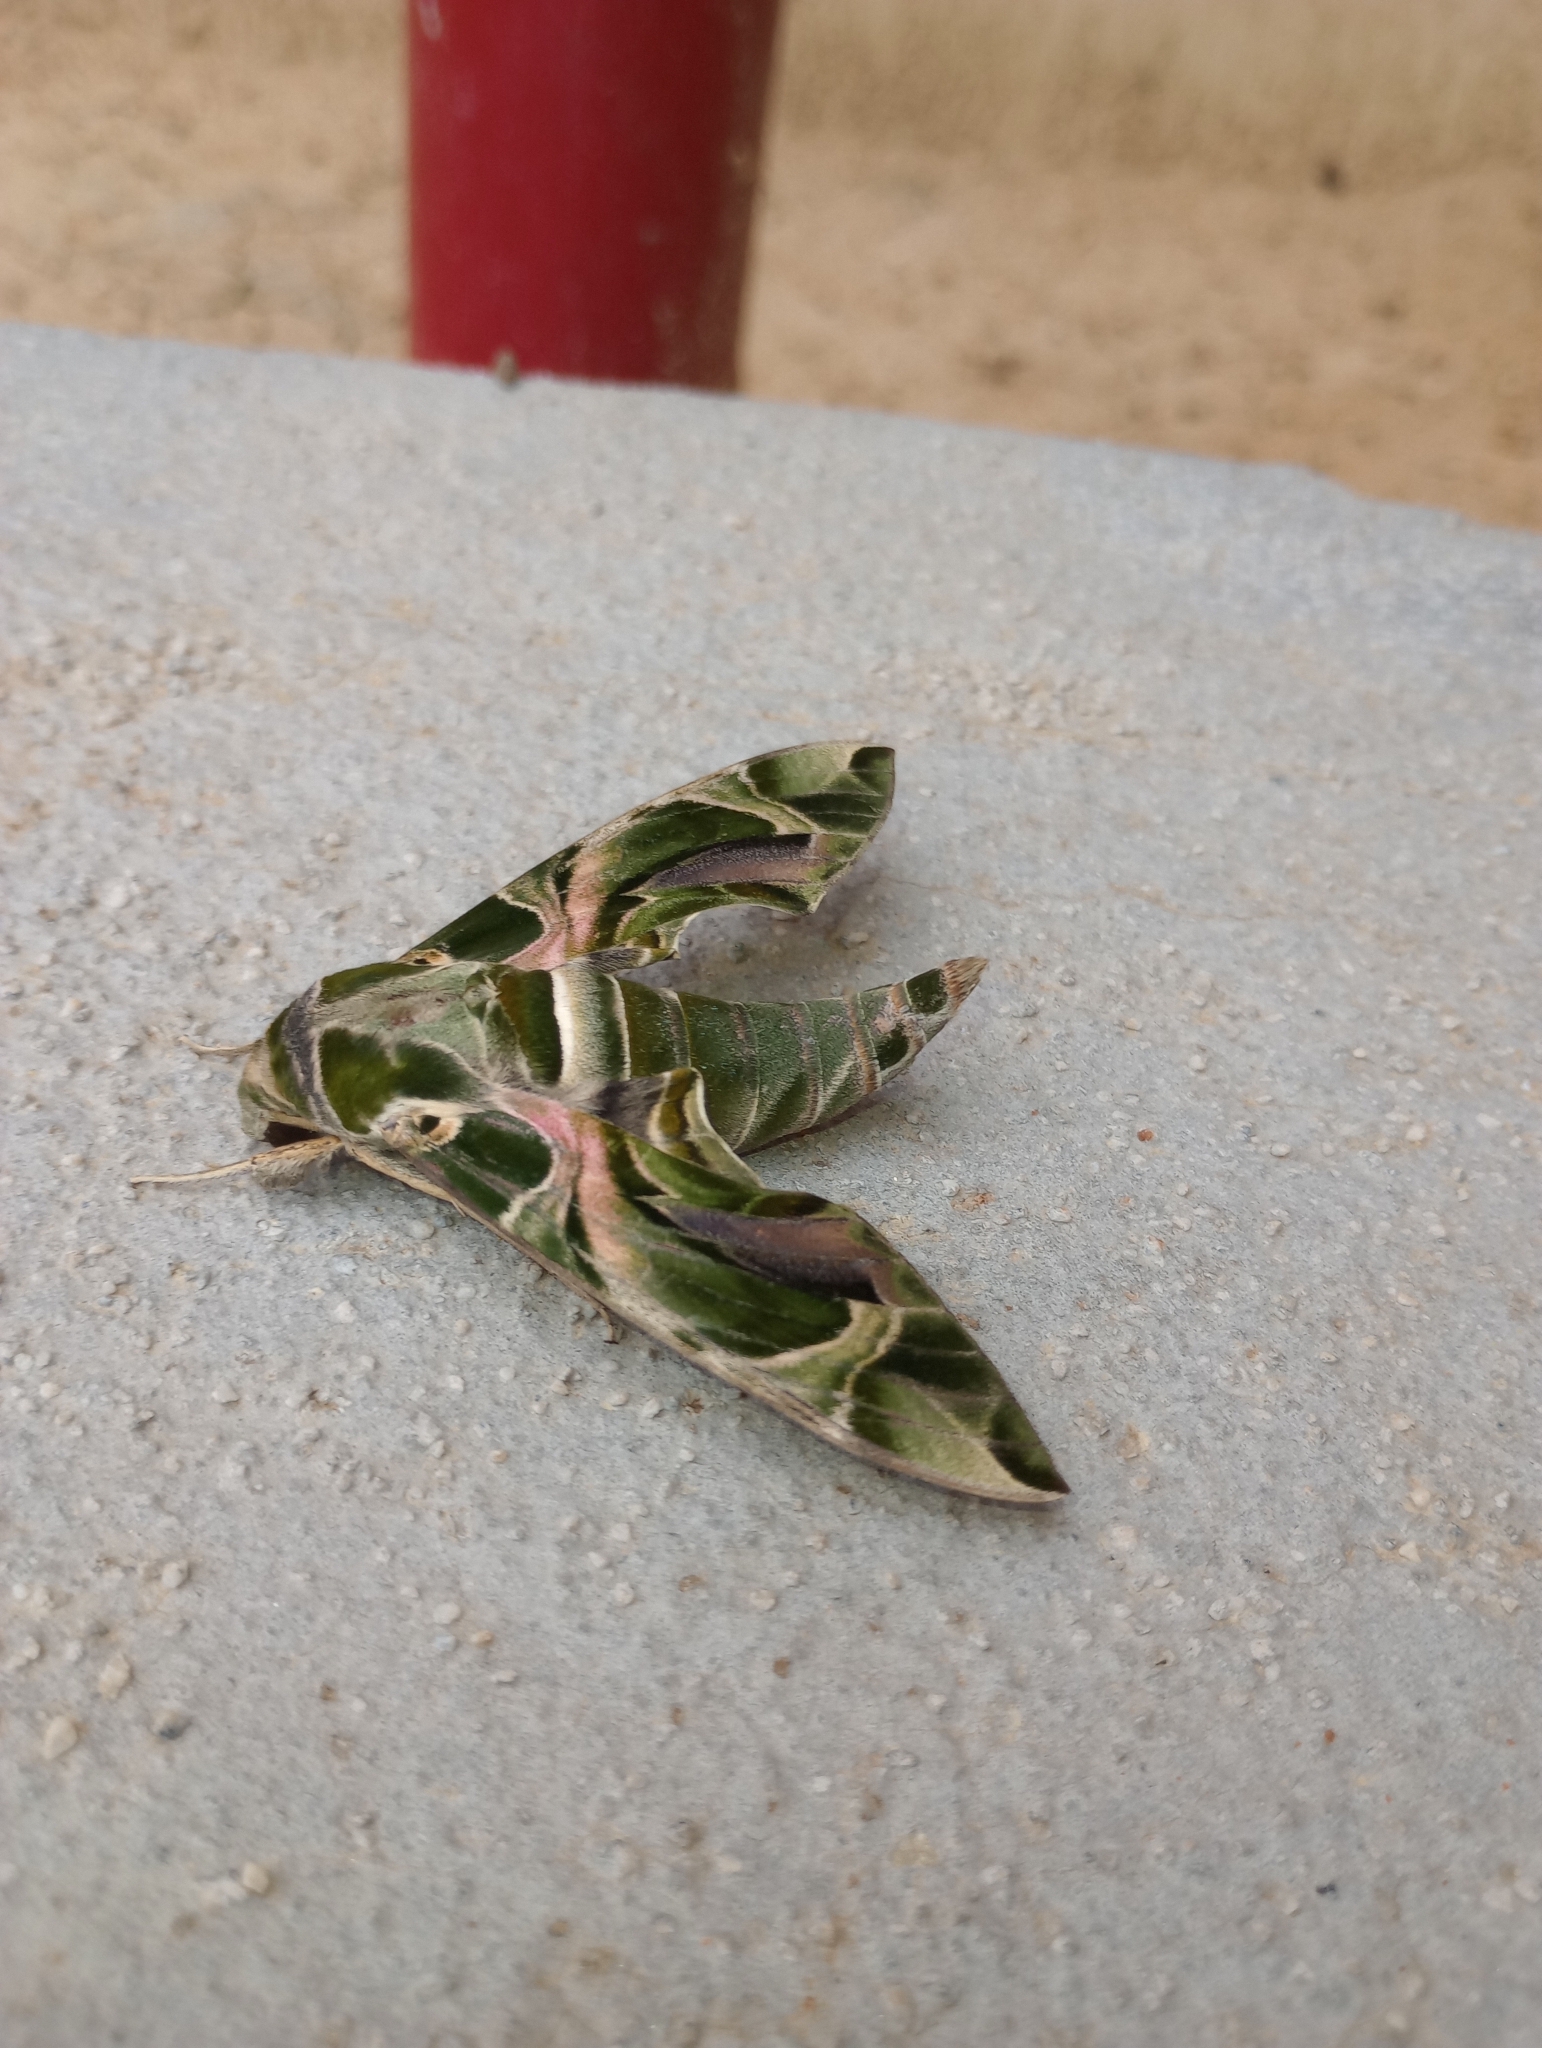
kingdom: Animalia
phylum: Arthropoda
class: Insecta
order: Lepidoptera
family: Sphingidae
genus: Daphnis
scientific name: Daphnis nerii
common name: Oleander hawk-moth
